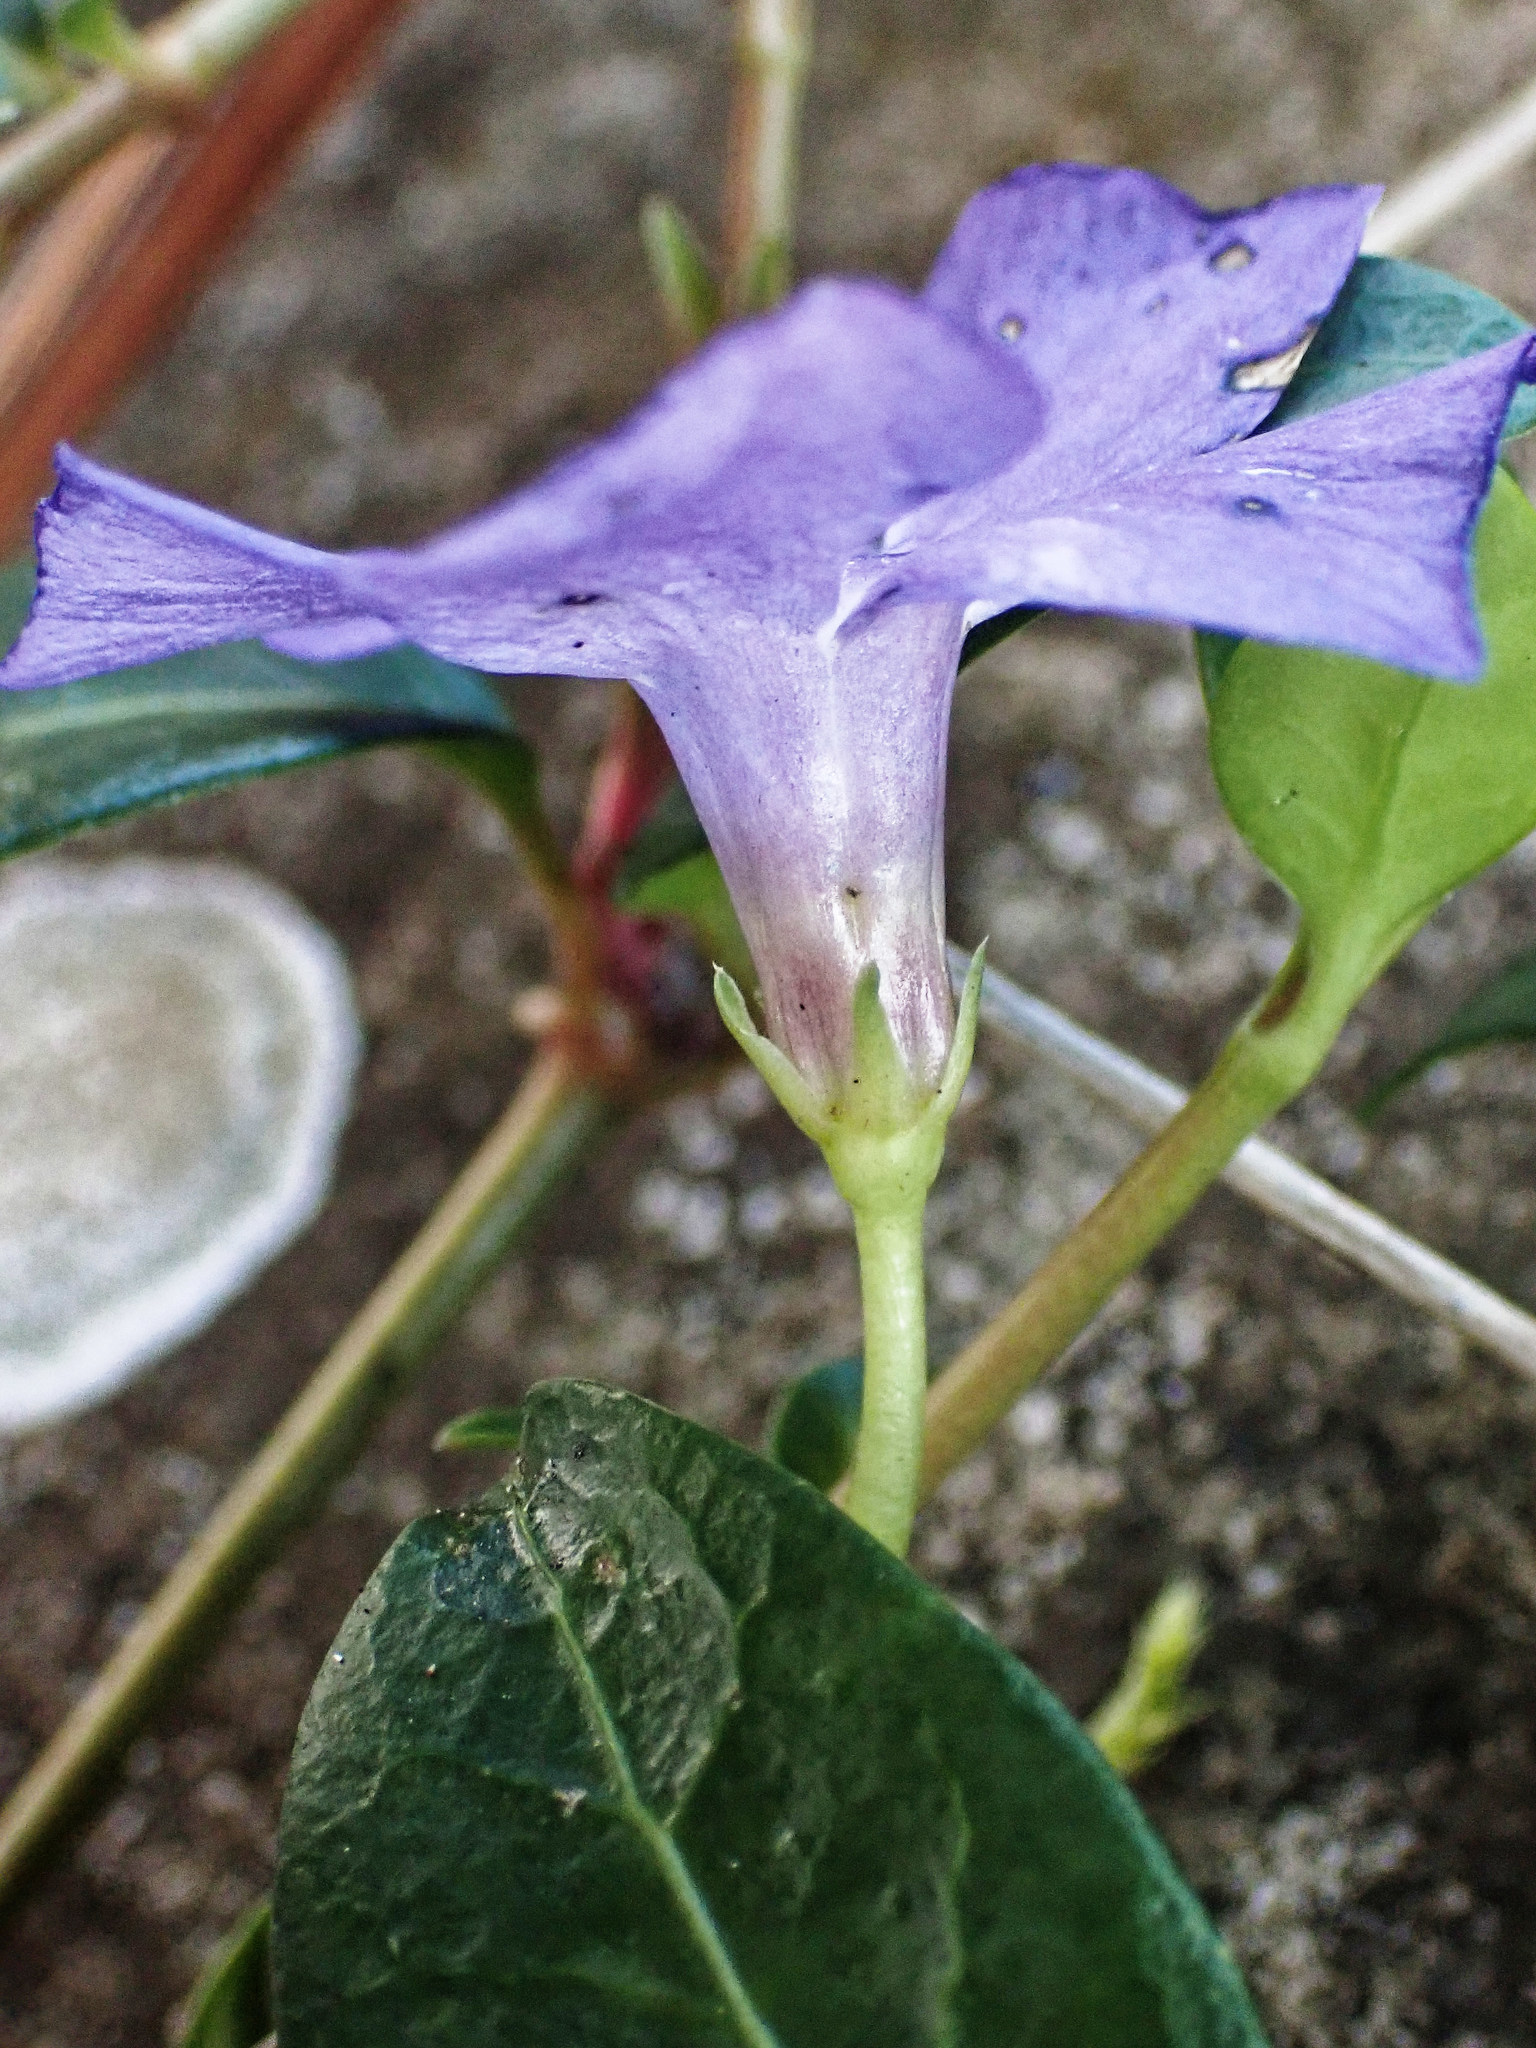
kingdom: Plantae
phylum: Tracheophyta
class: Magnoliopsida
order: Gentianales
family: Apocynaceae
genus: Vinca
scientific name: Vinca minor
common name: Lesser periwinkle
